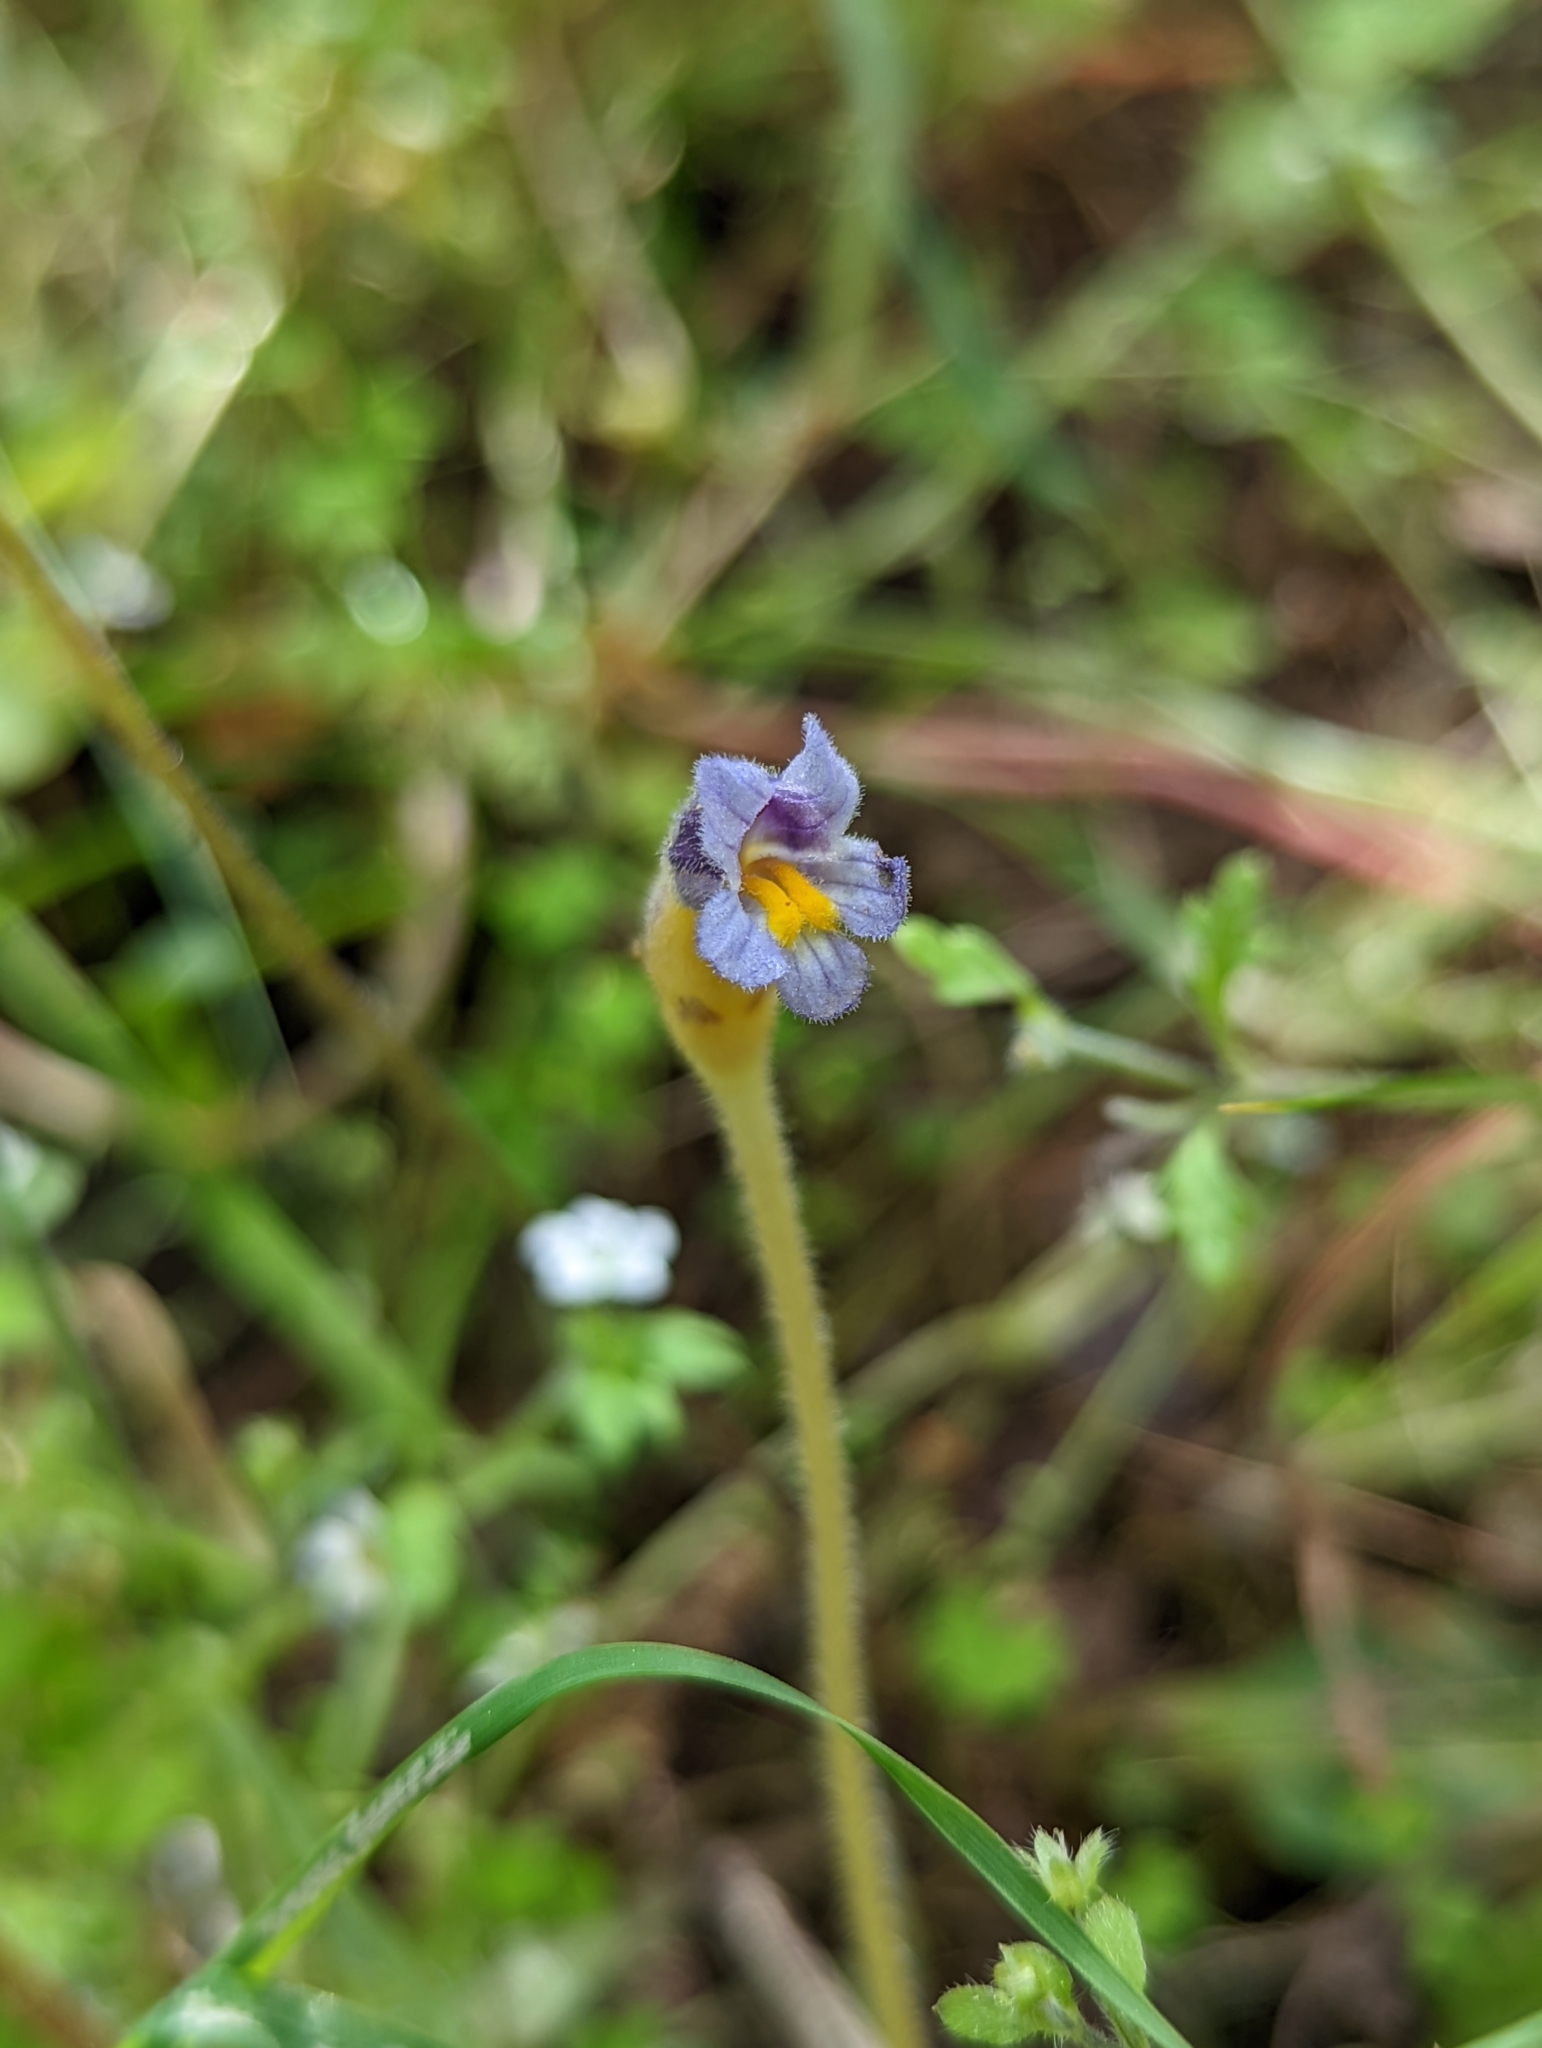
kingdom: Plantae
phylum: Tracheophyta
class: Magnoliopsida
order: Lamiales
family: Orobanchaceae
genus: Aphyllon
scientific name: Aphyllon uniflorum
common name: One-flowered broomrape
